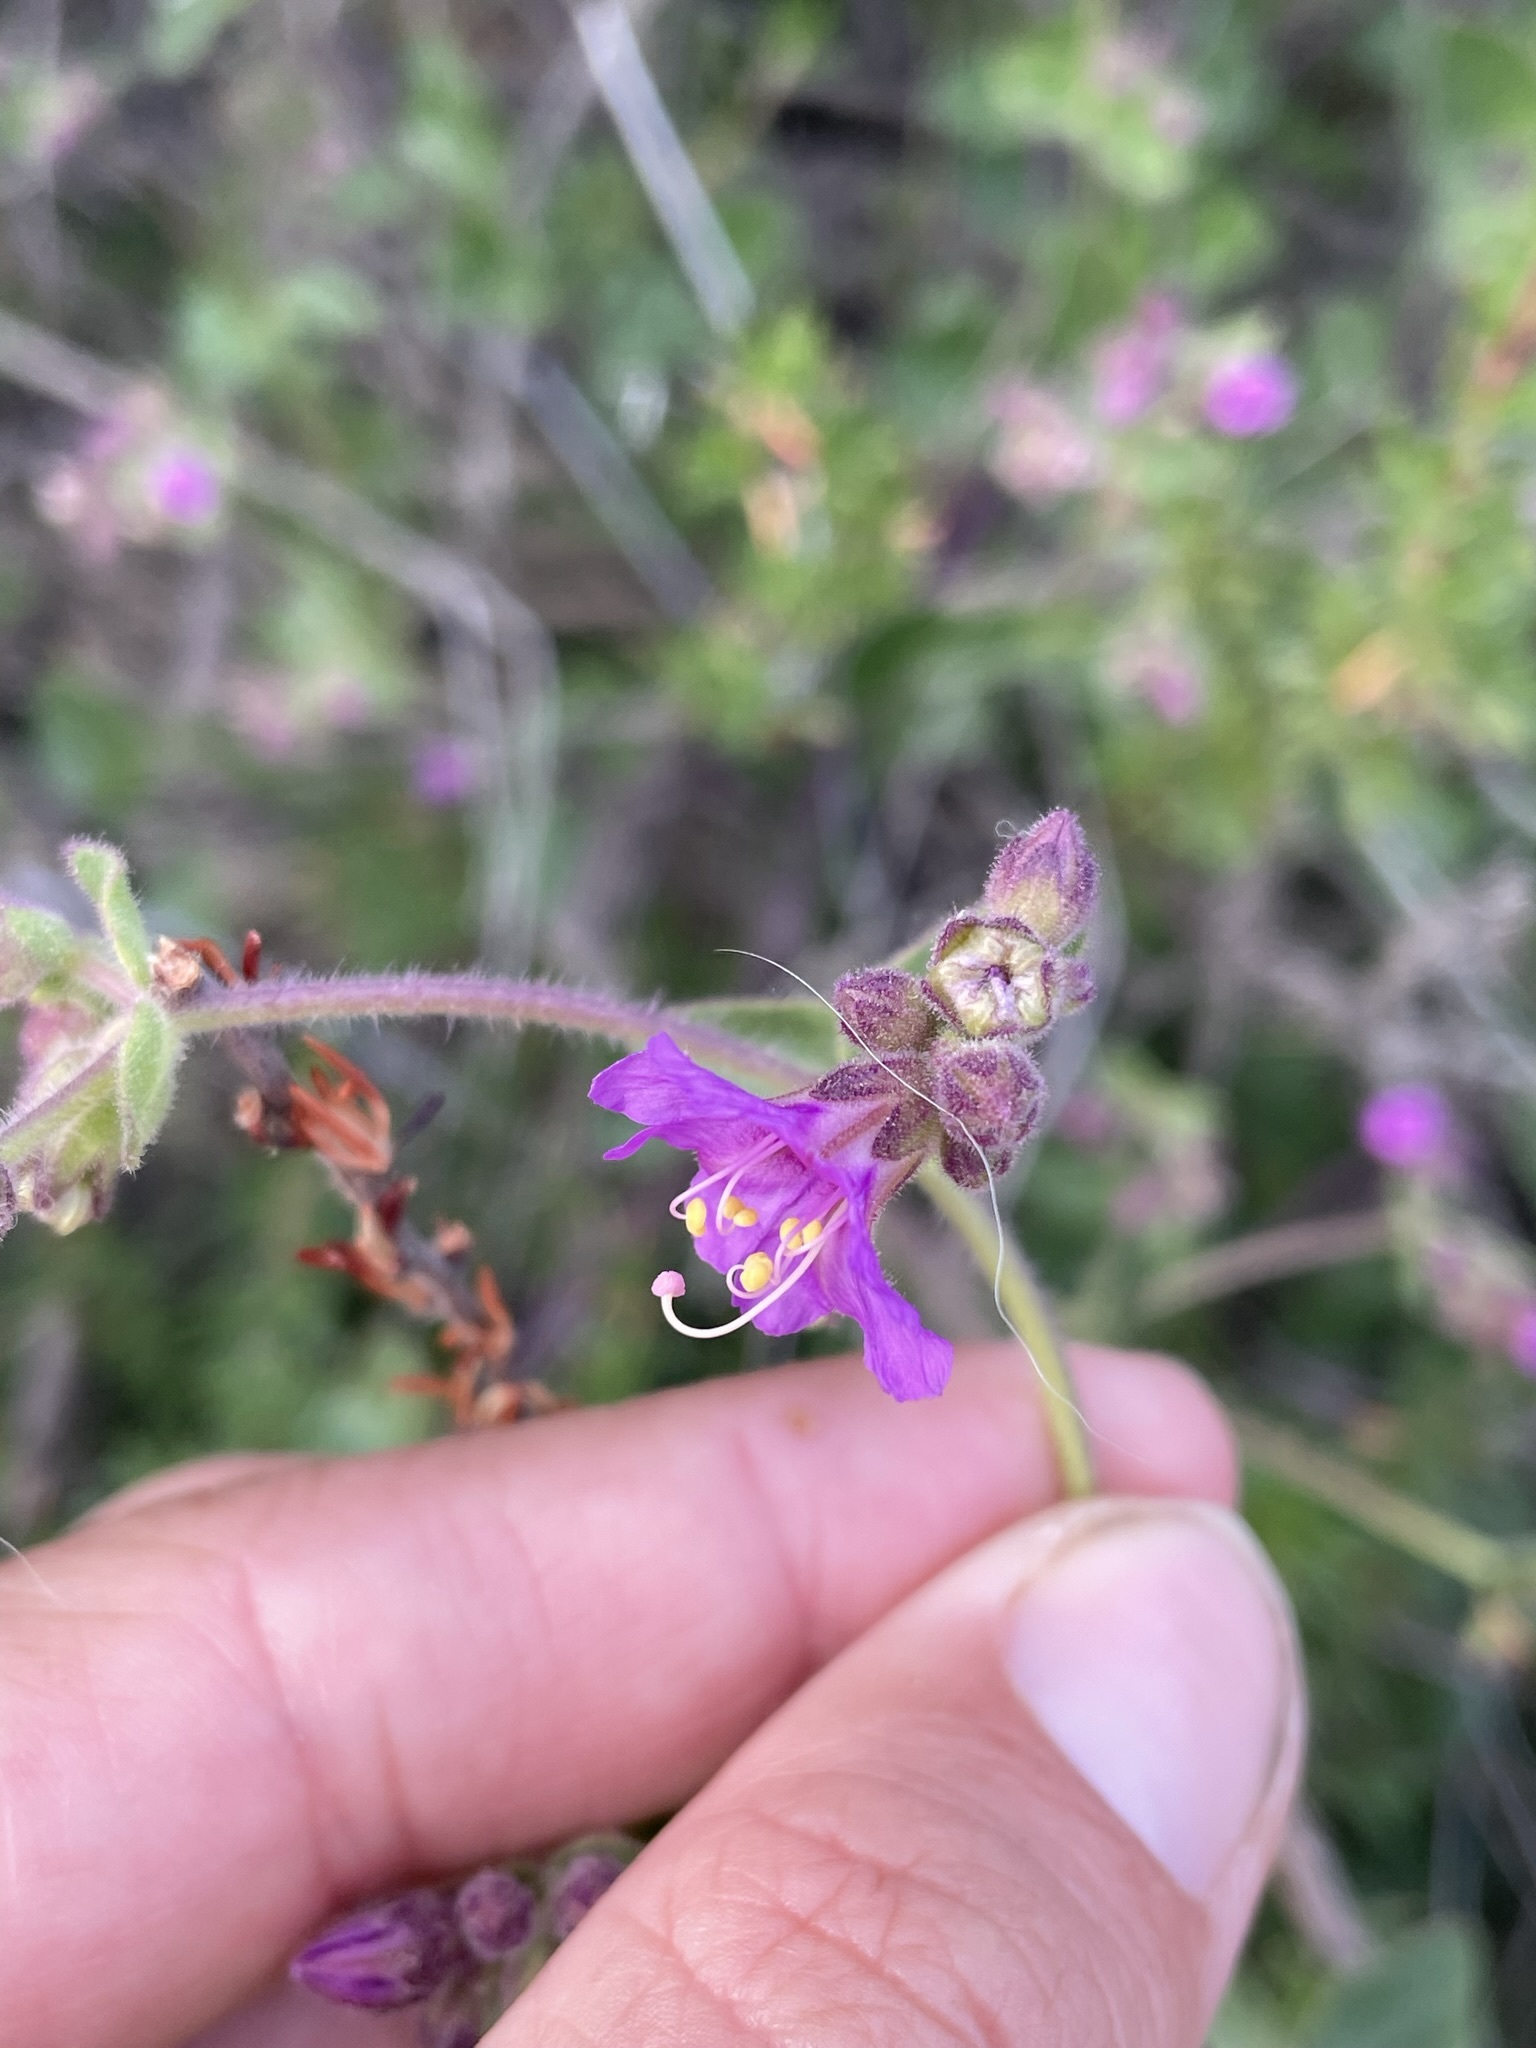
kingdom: Plantae
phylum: Tracheophyta
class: Magnoliopsida
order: Caryophyllales
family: Nyctaginaceae
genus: Mirabilis
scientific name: Mirabilis laevis
